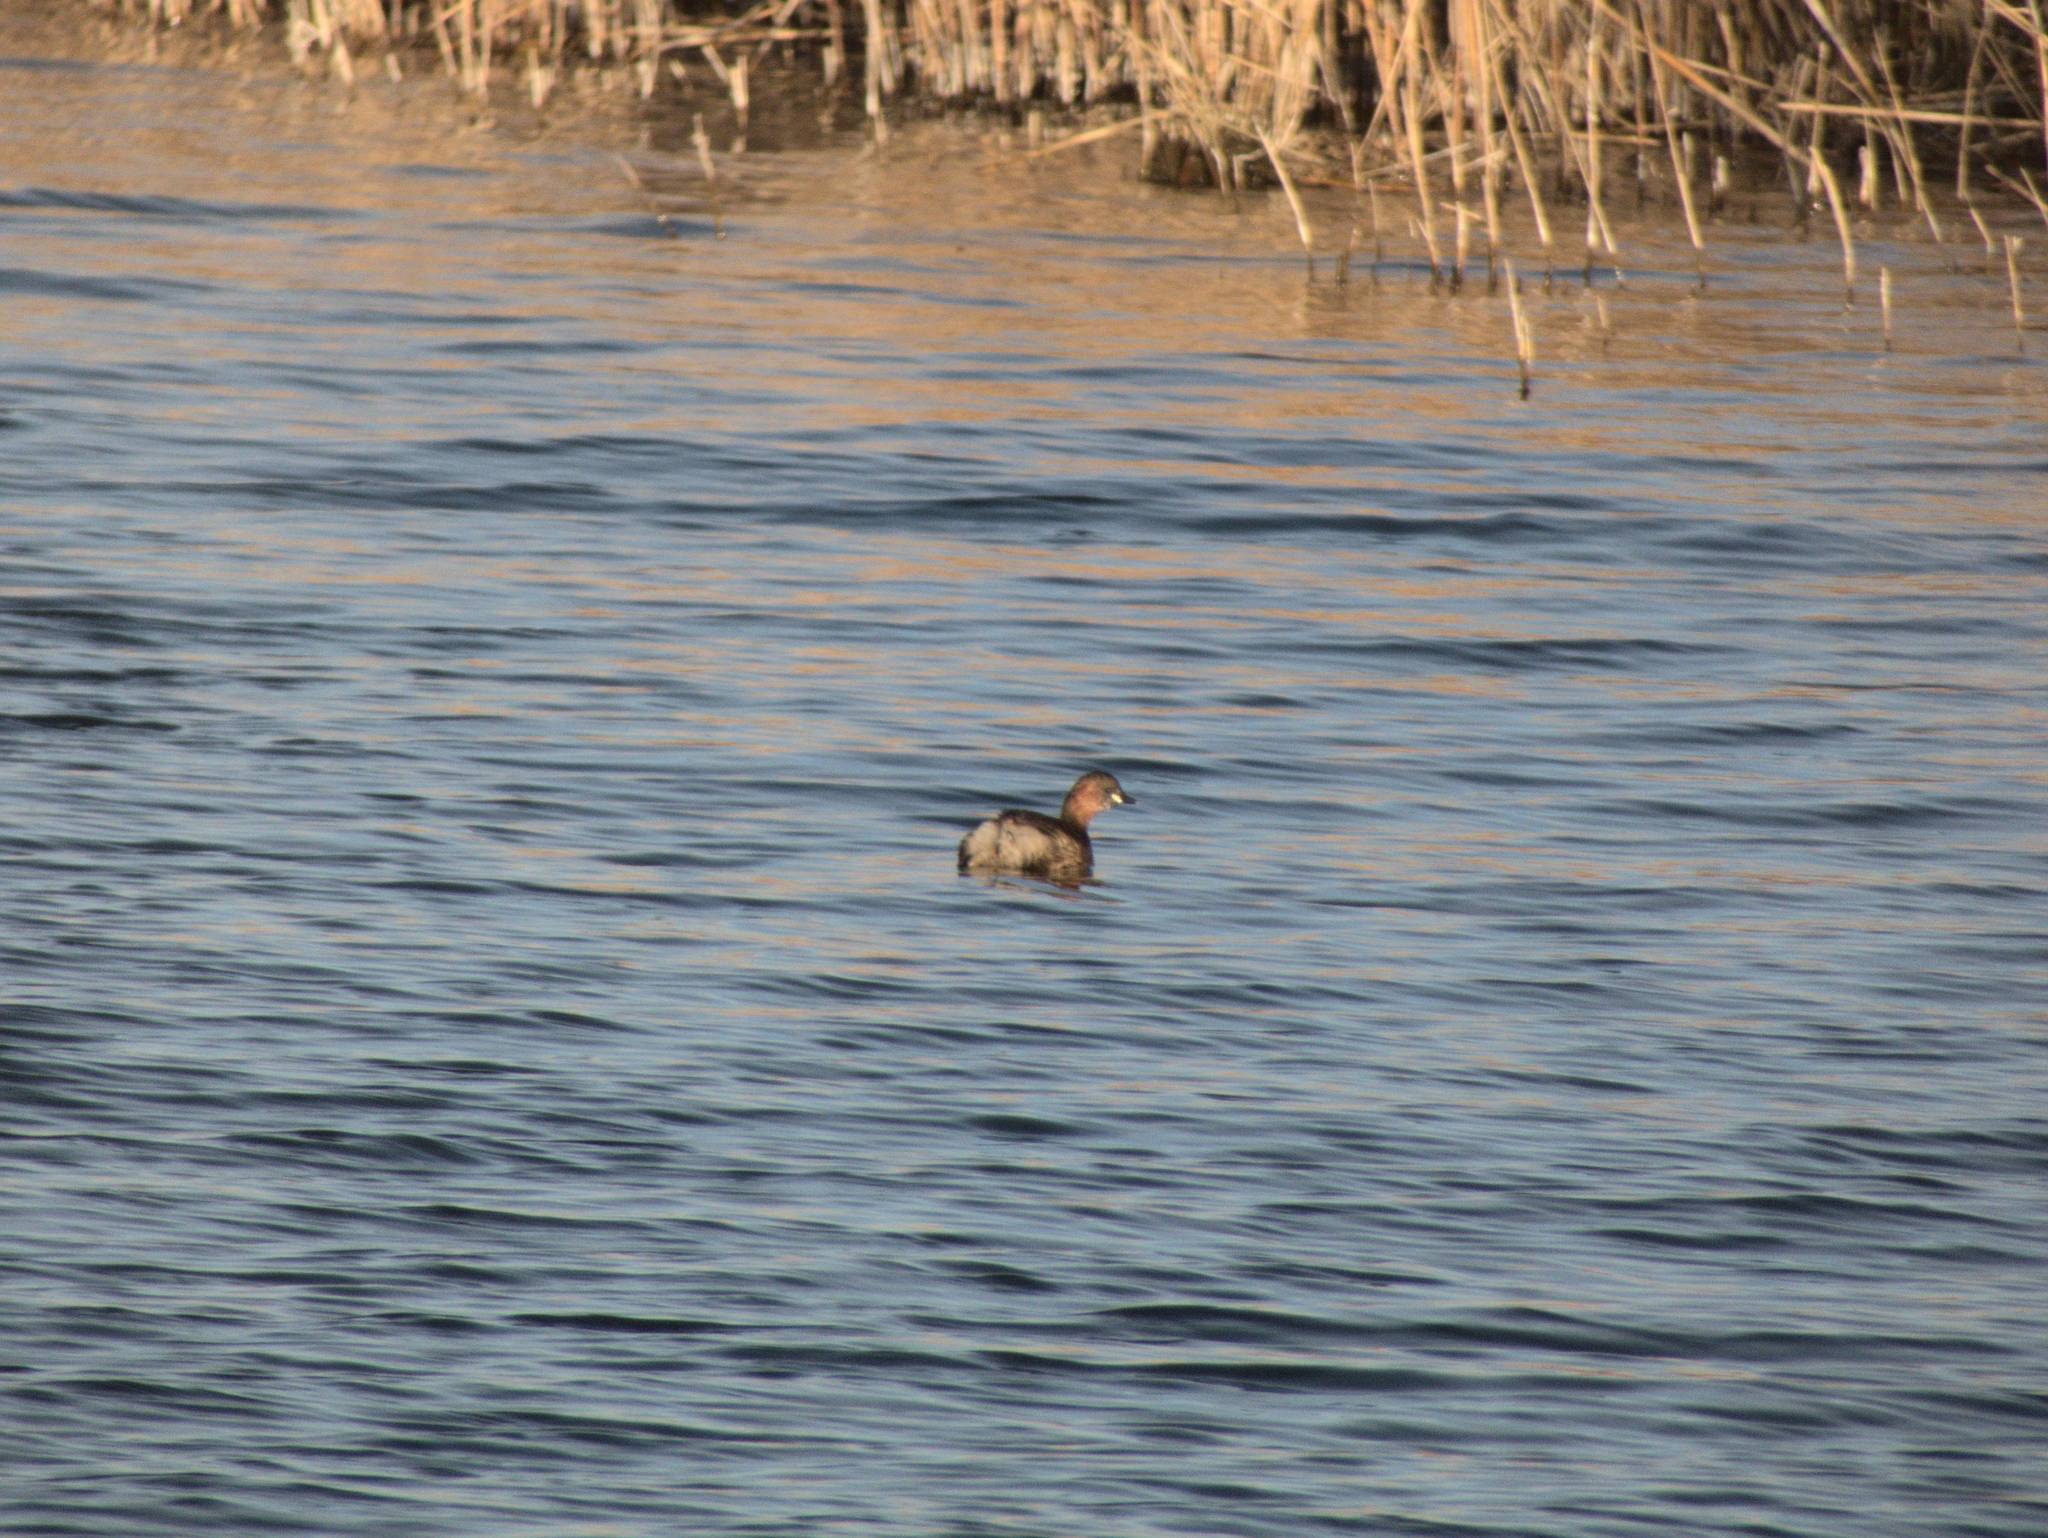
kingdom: Animalia
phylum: Chordata
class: Aves
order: Podicipediformes
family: Podicipedidae
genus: Tachybaptus
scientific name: Tachybaptus ruficollis
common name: Little grebe
